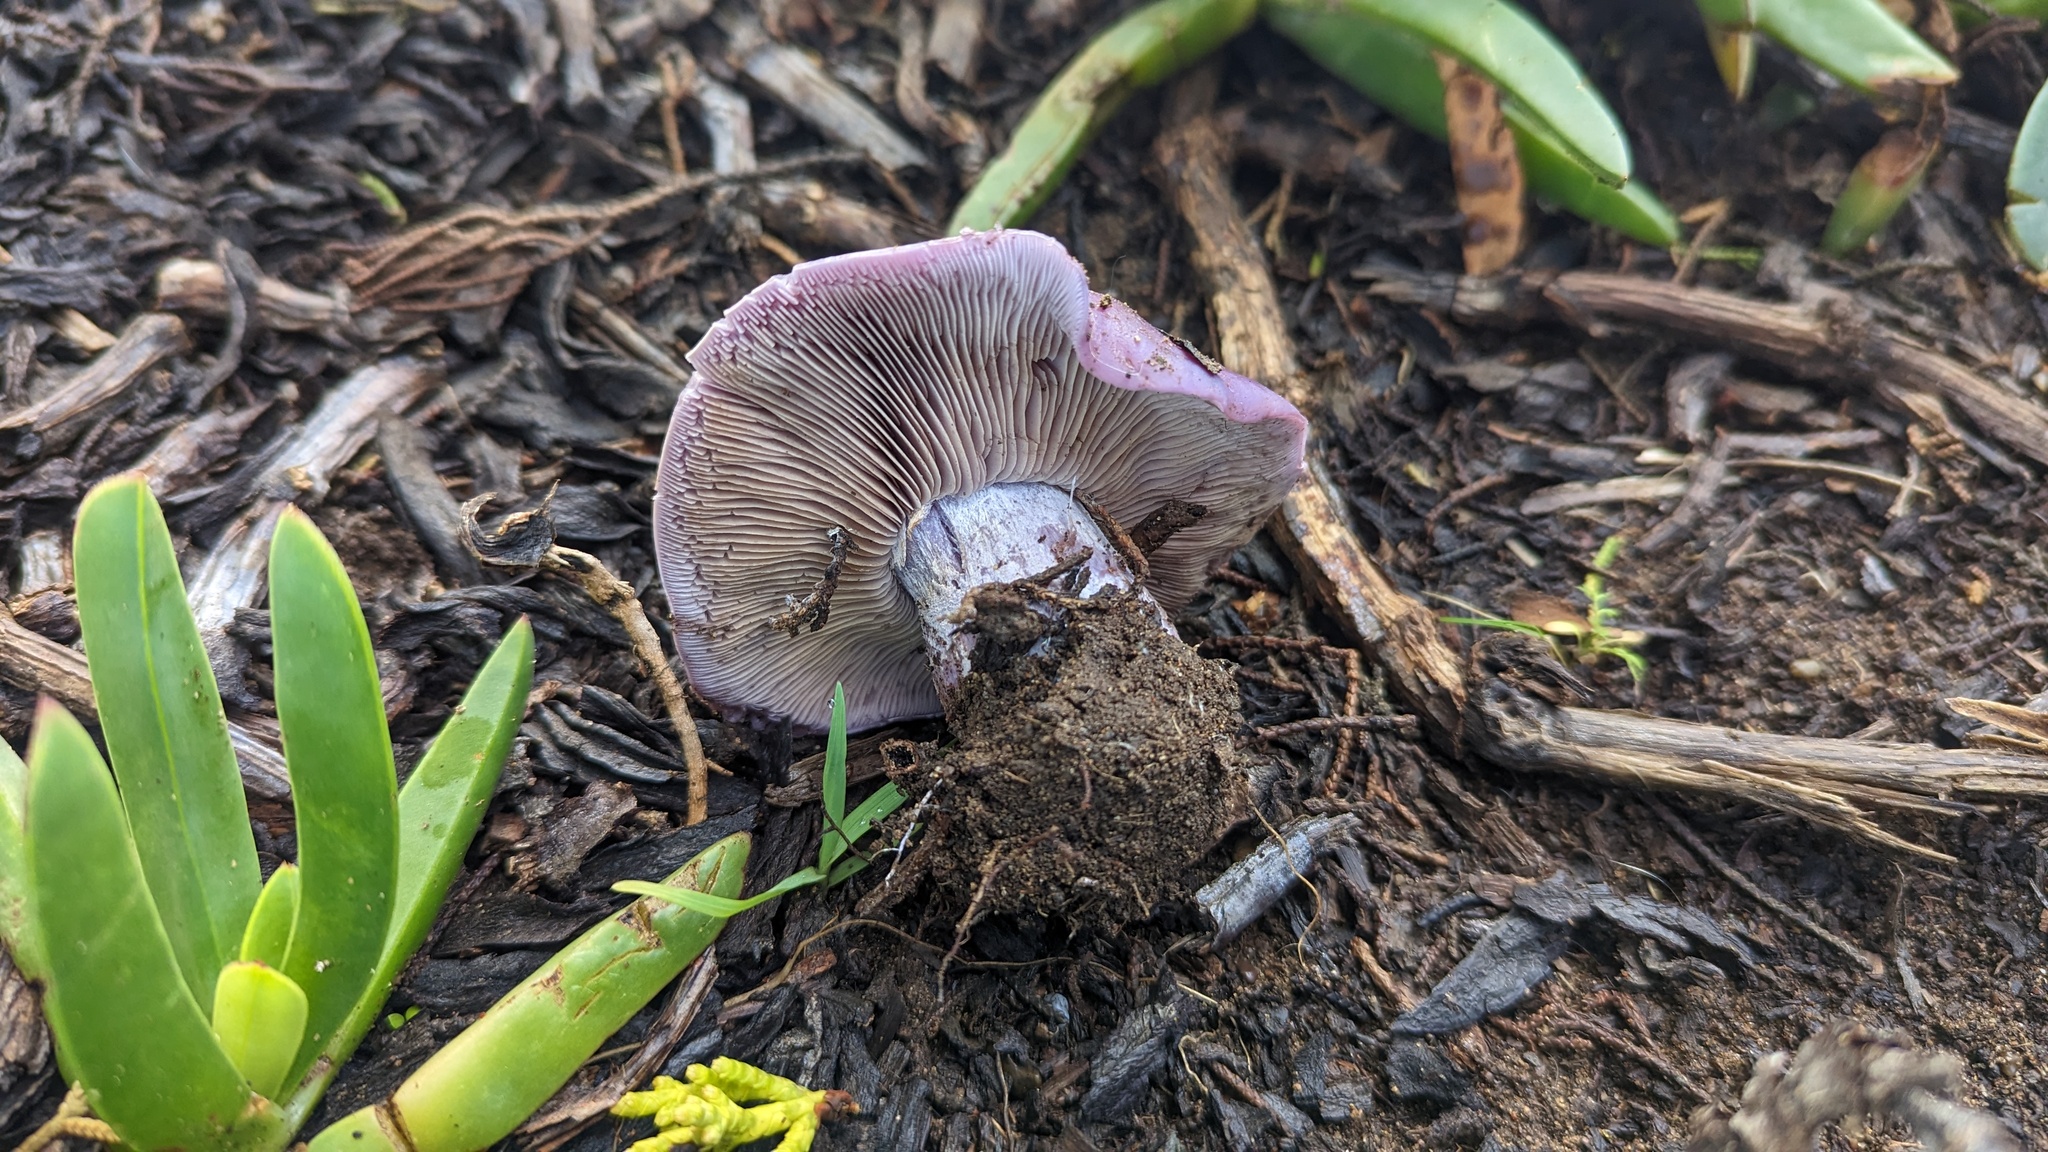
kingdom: Fungi
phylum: Basidiomycota
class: Agaricomycetes
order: Agaricales
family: Tricholomataceae
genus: Collybia
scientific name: Collybia
